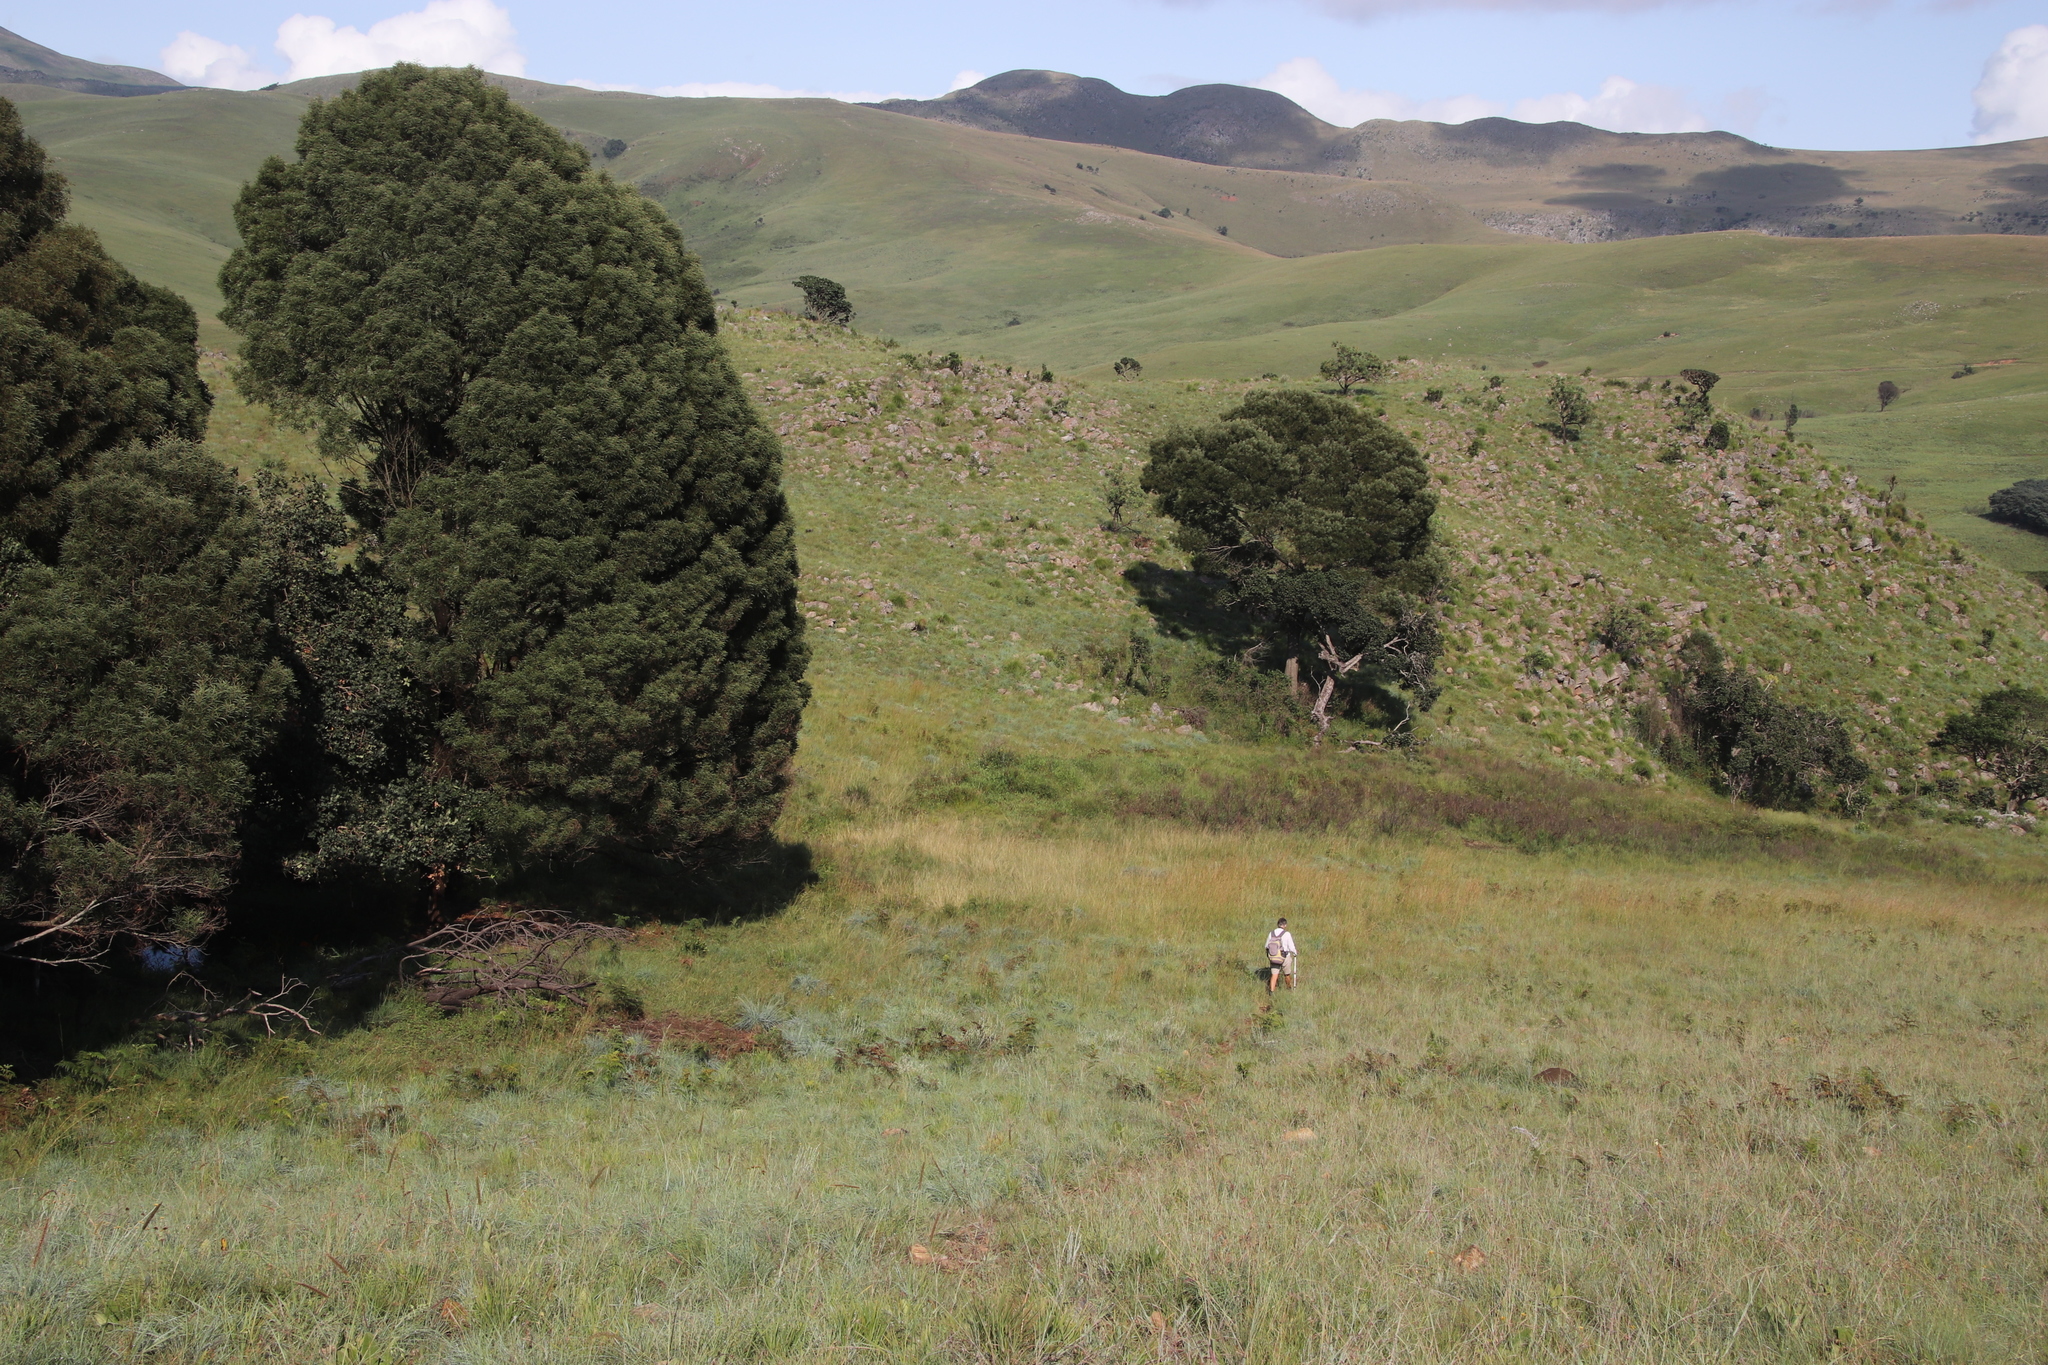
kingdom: Plantae
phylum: Tracheophyta
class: Magnoliopsida
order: Fabales
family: Fabaceae
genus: Acacia
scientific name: Acacia melanoxylon
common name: Blackwood
